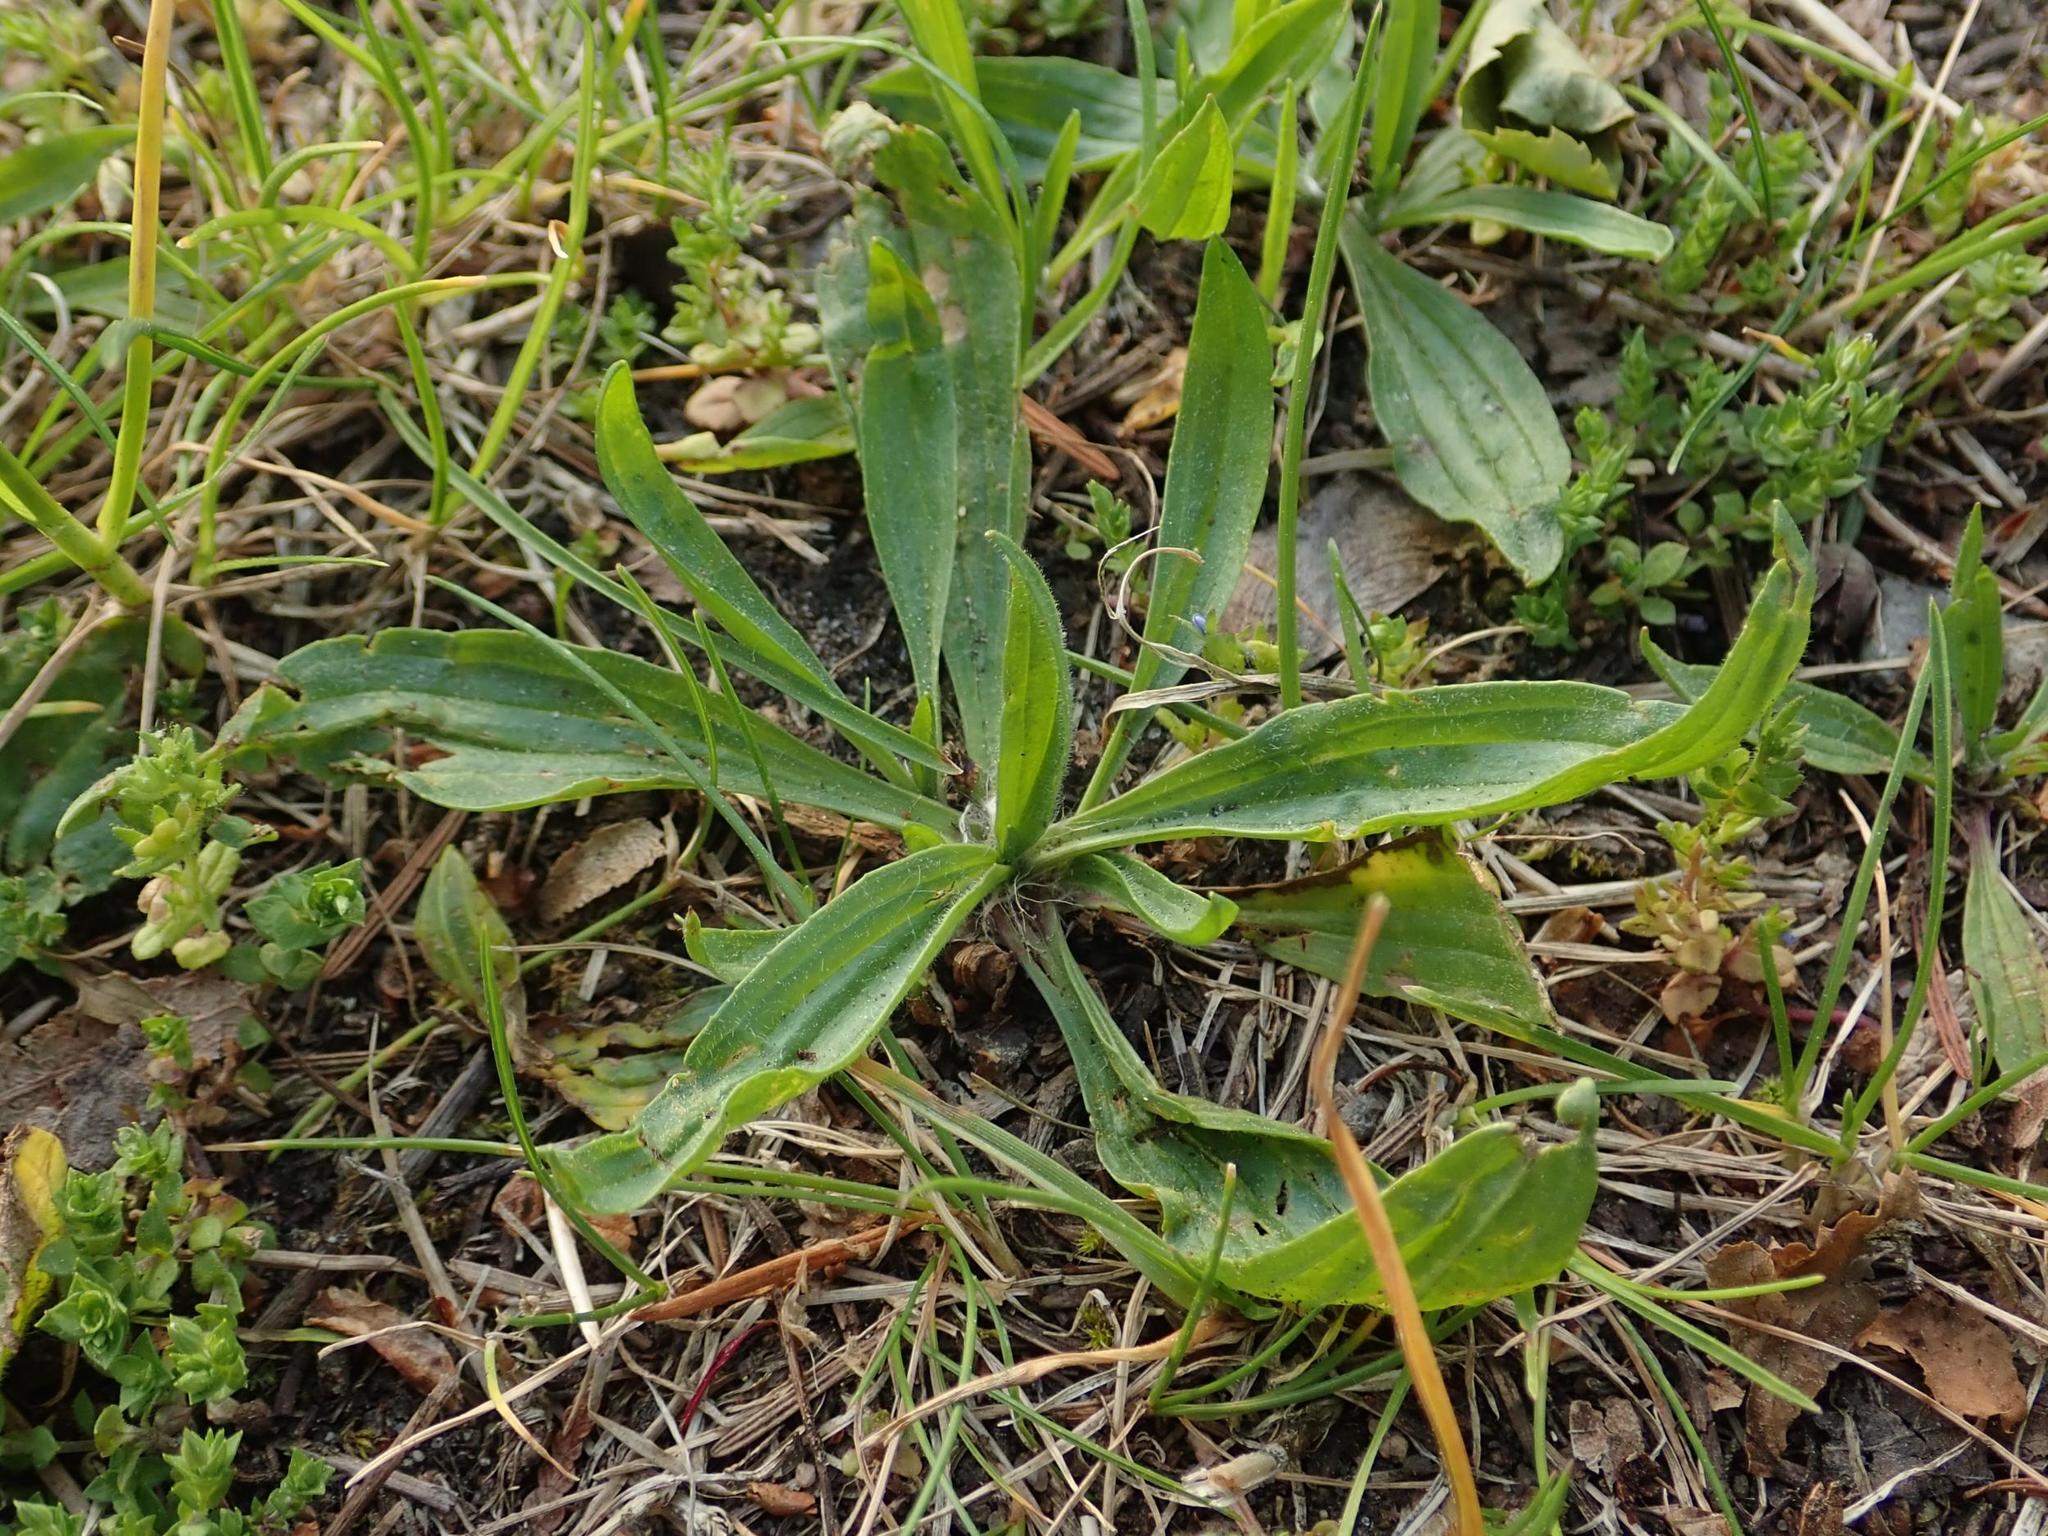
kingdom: Plantae
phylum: Tracheophyta
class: Magnoliopsida
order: Lamiales
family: Plantaginaceae
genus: Plantago
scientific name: Plantago lanceolata
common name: Ribwort plantain
